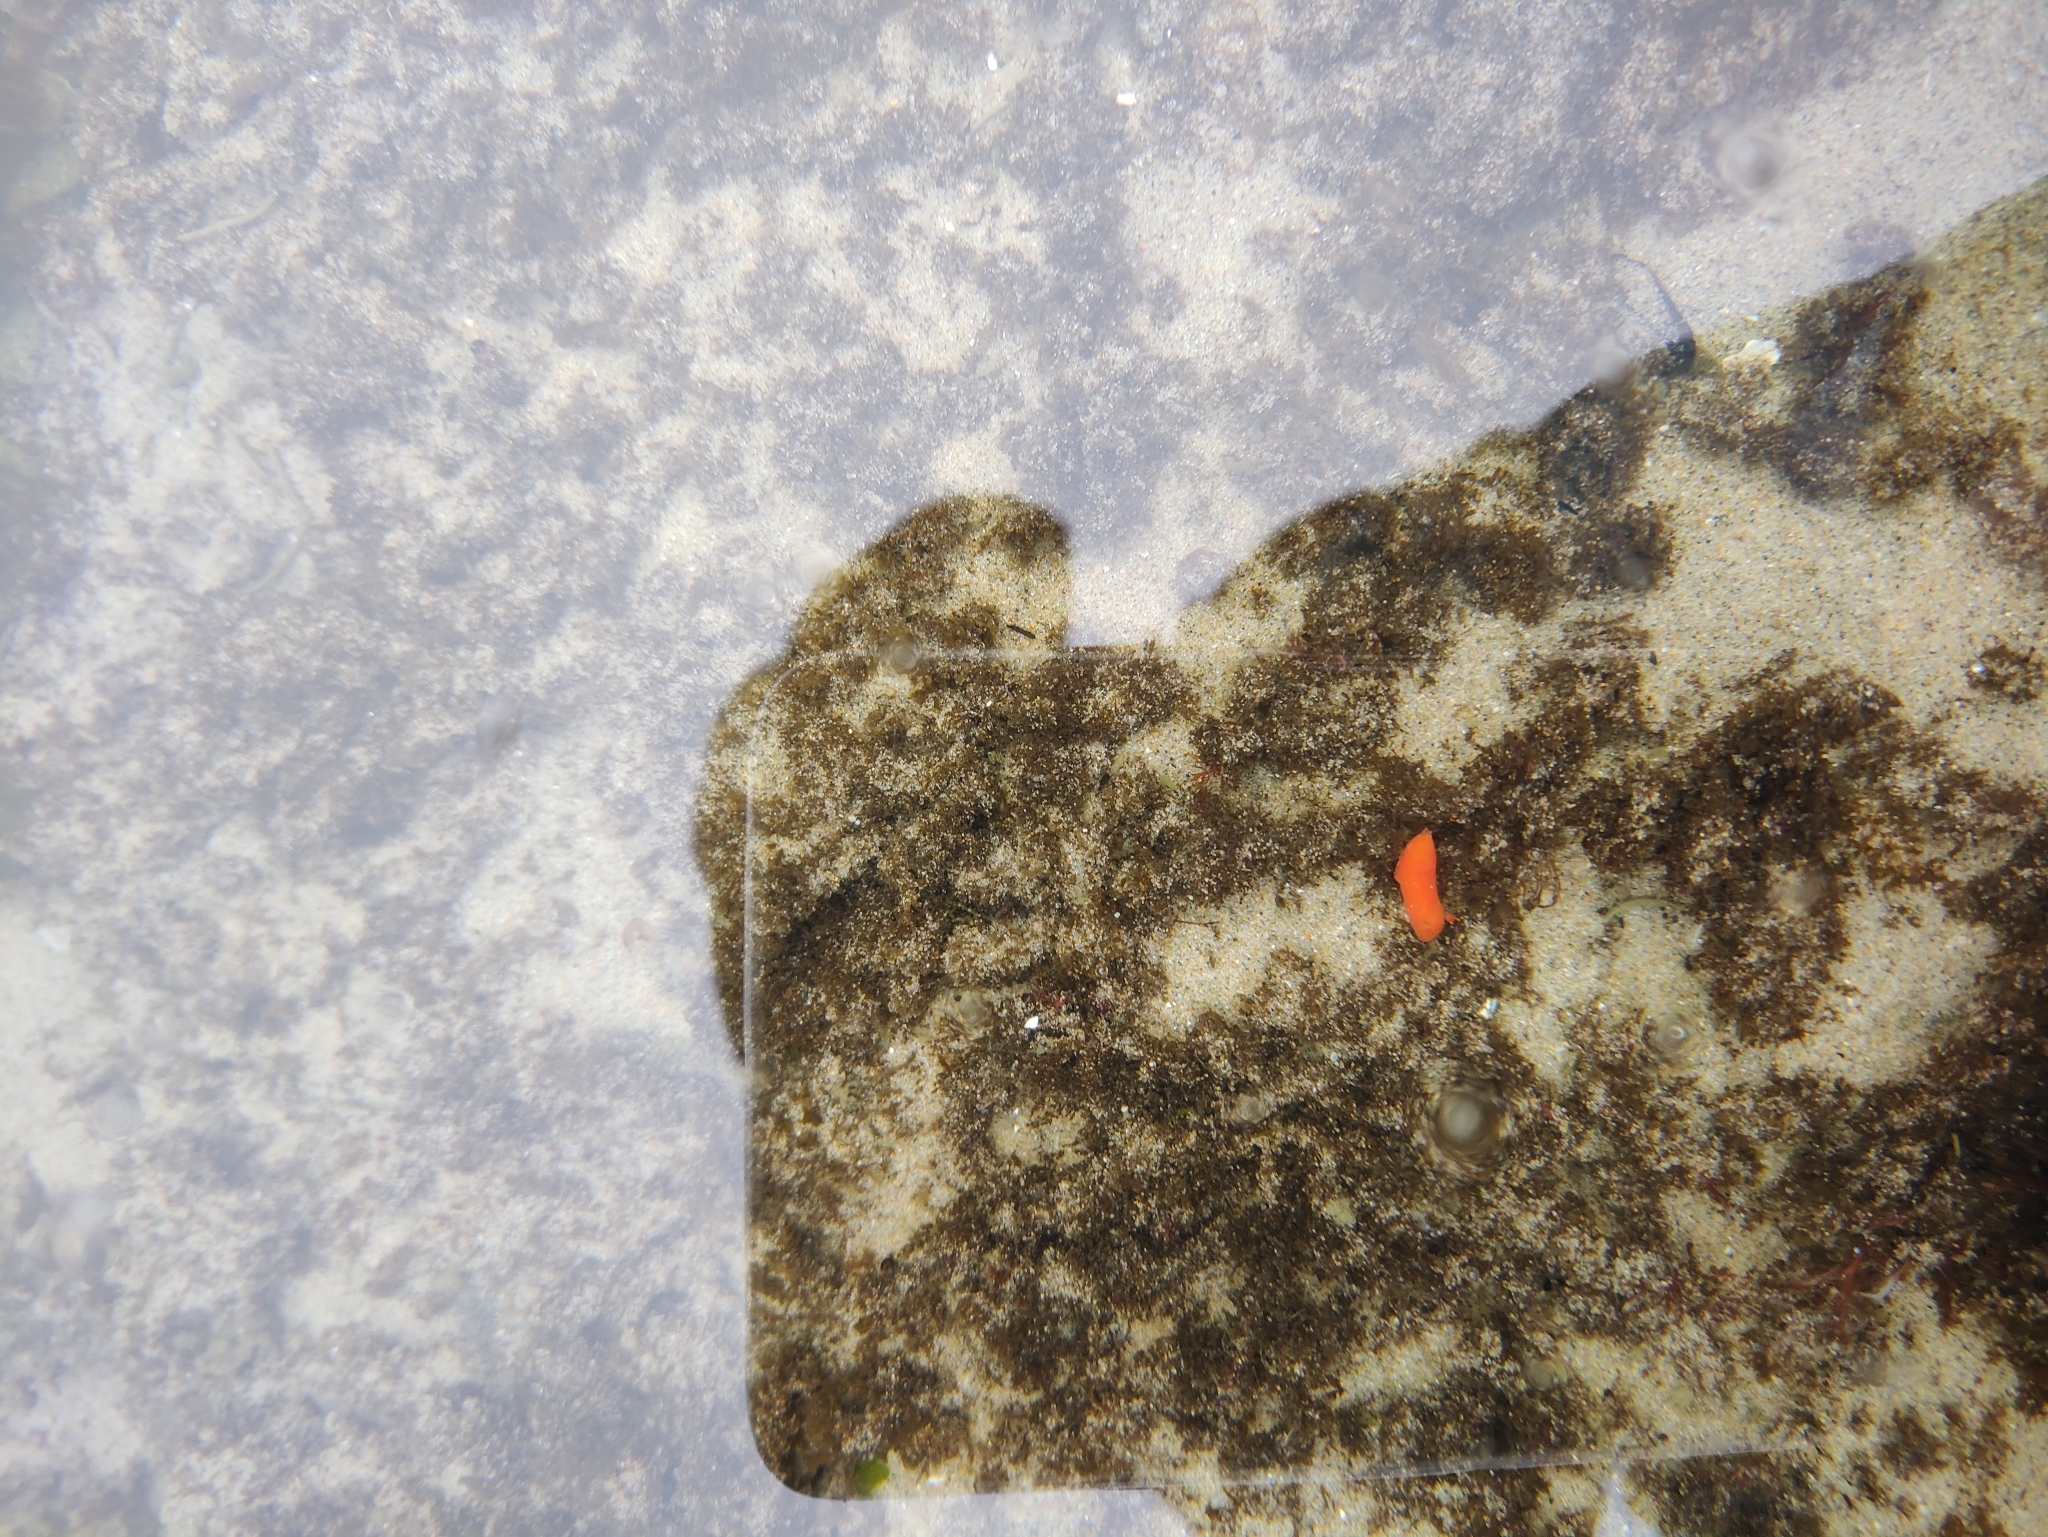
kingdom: Animalia
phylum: Mollusca
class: Gastropoda
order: Nudibranchia
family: Discodorididae
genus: Rostanga
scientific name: Rostanga pulchra
